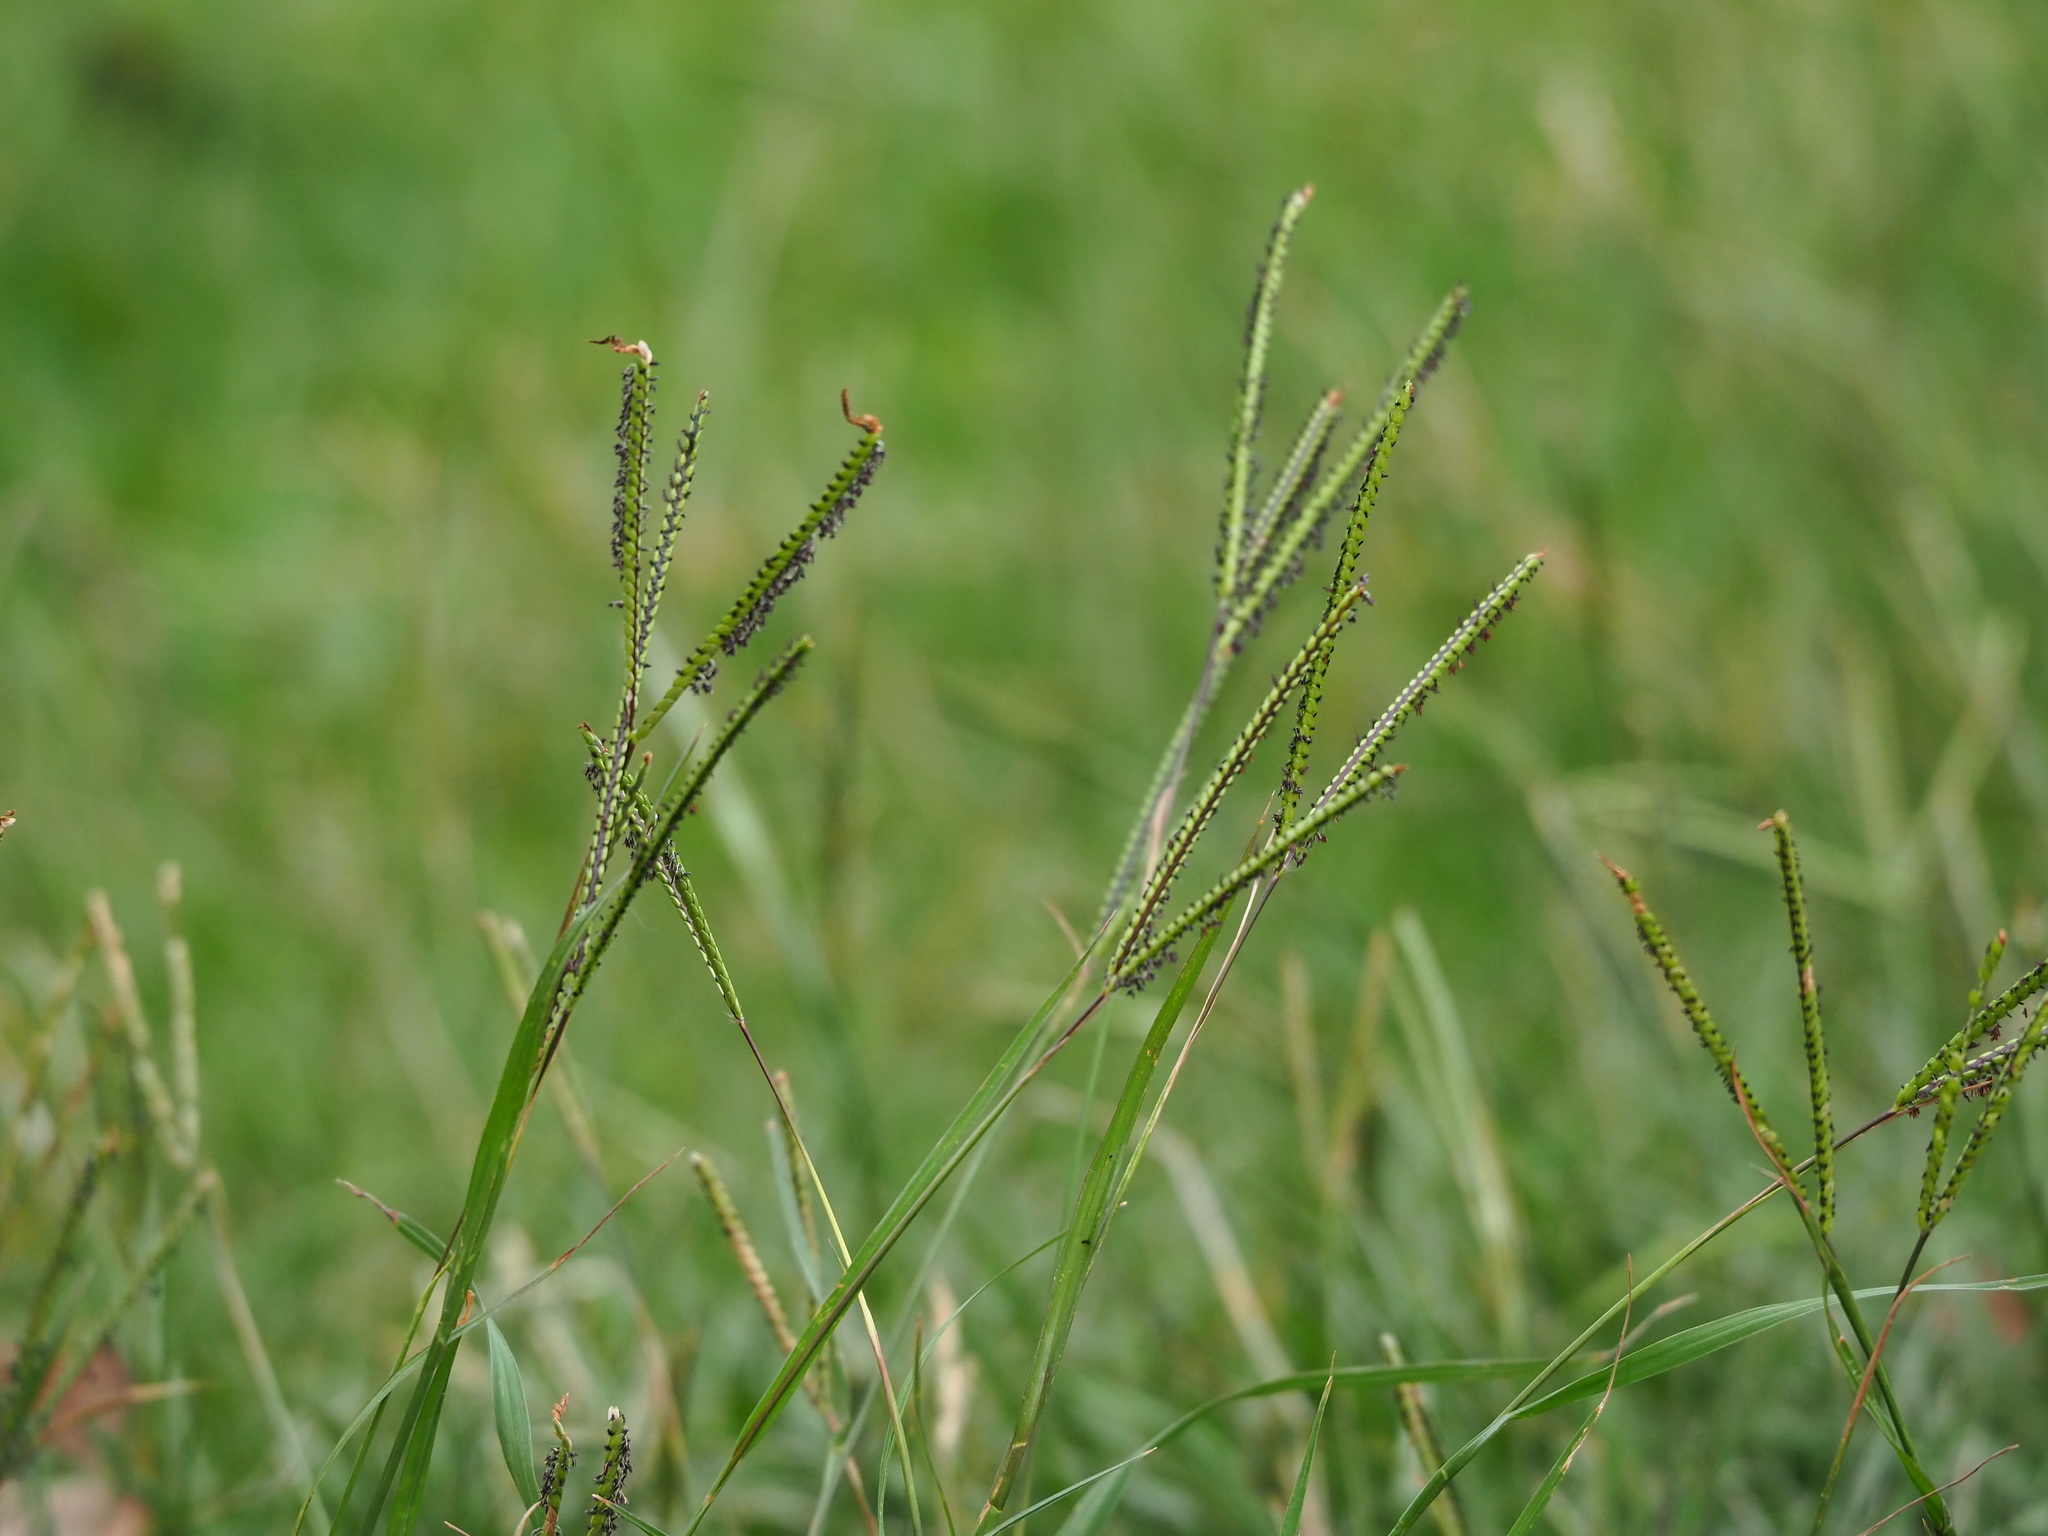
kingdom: Plantae
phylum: Tracheophyta
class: Liliopsida
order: Poales
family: Poaceae
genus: Paspalum
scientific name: Paspalum notatum
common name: Bahiagrass
